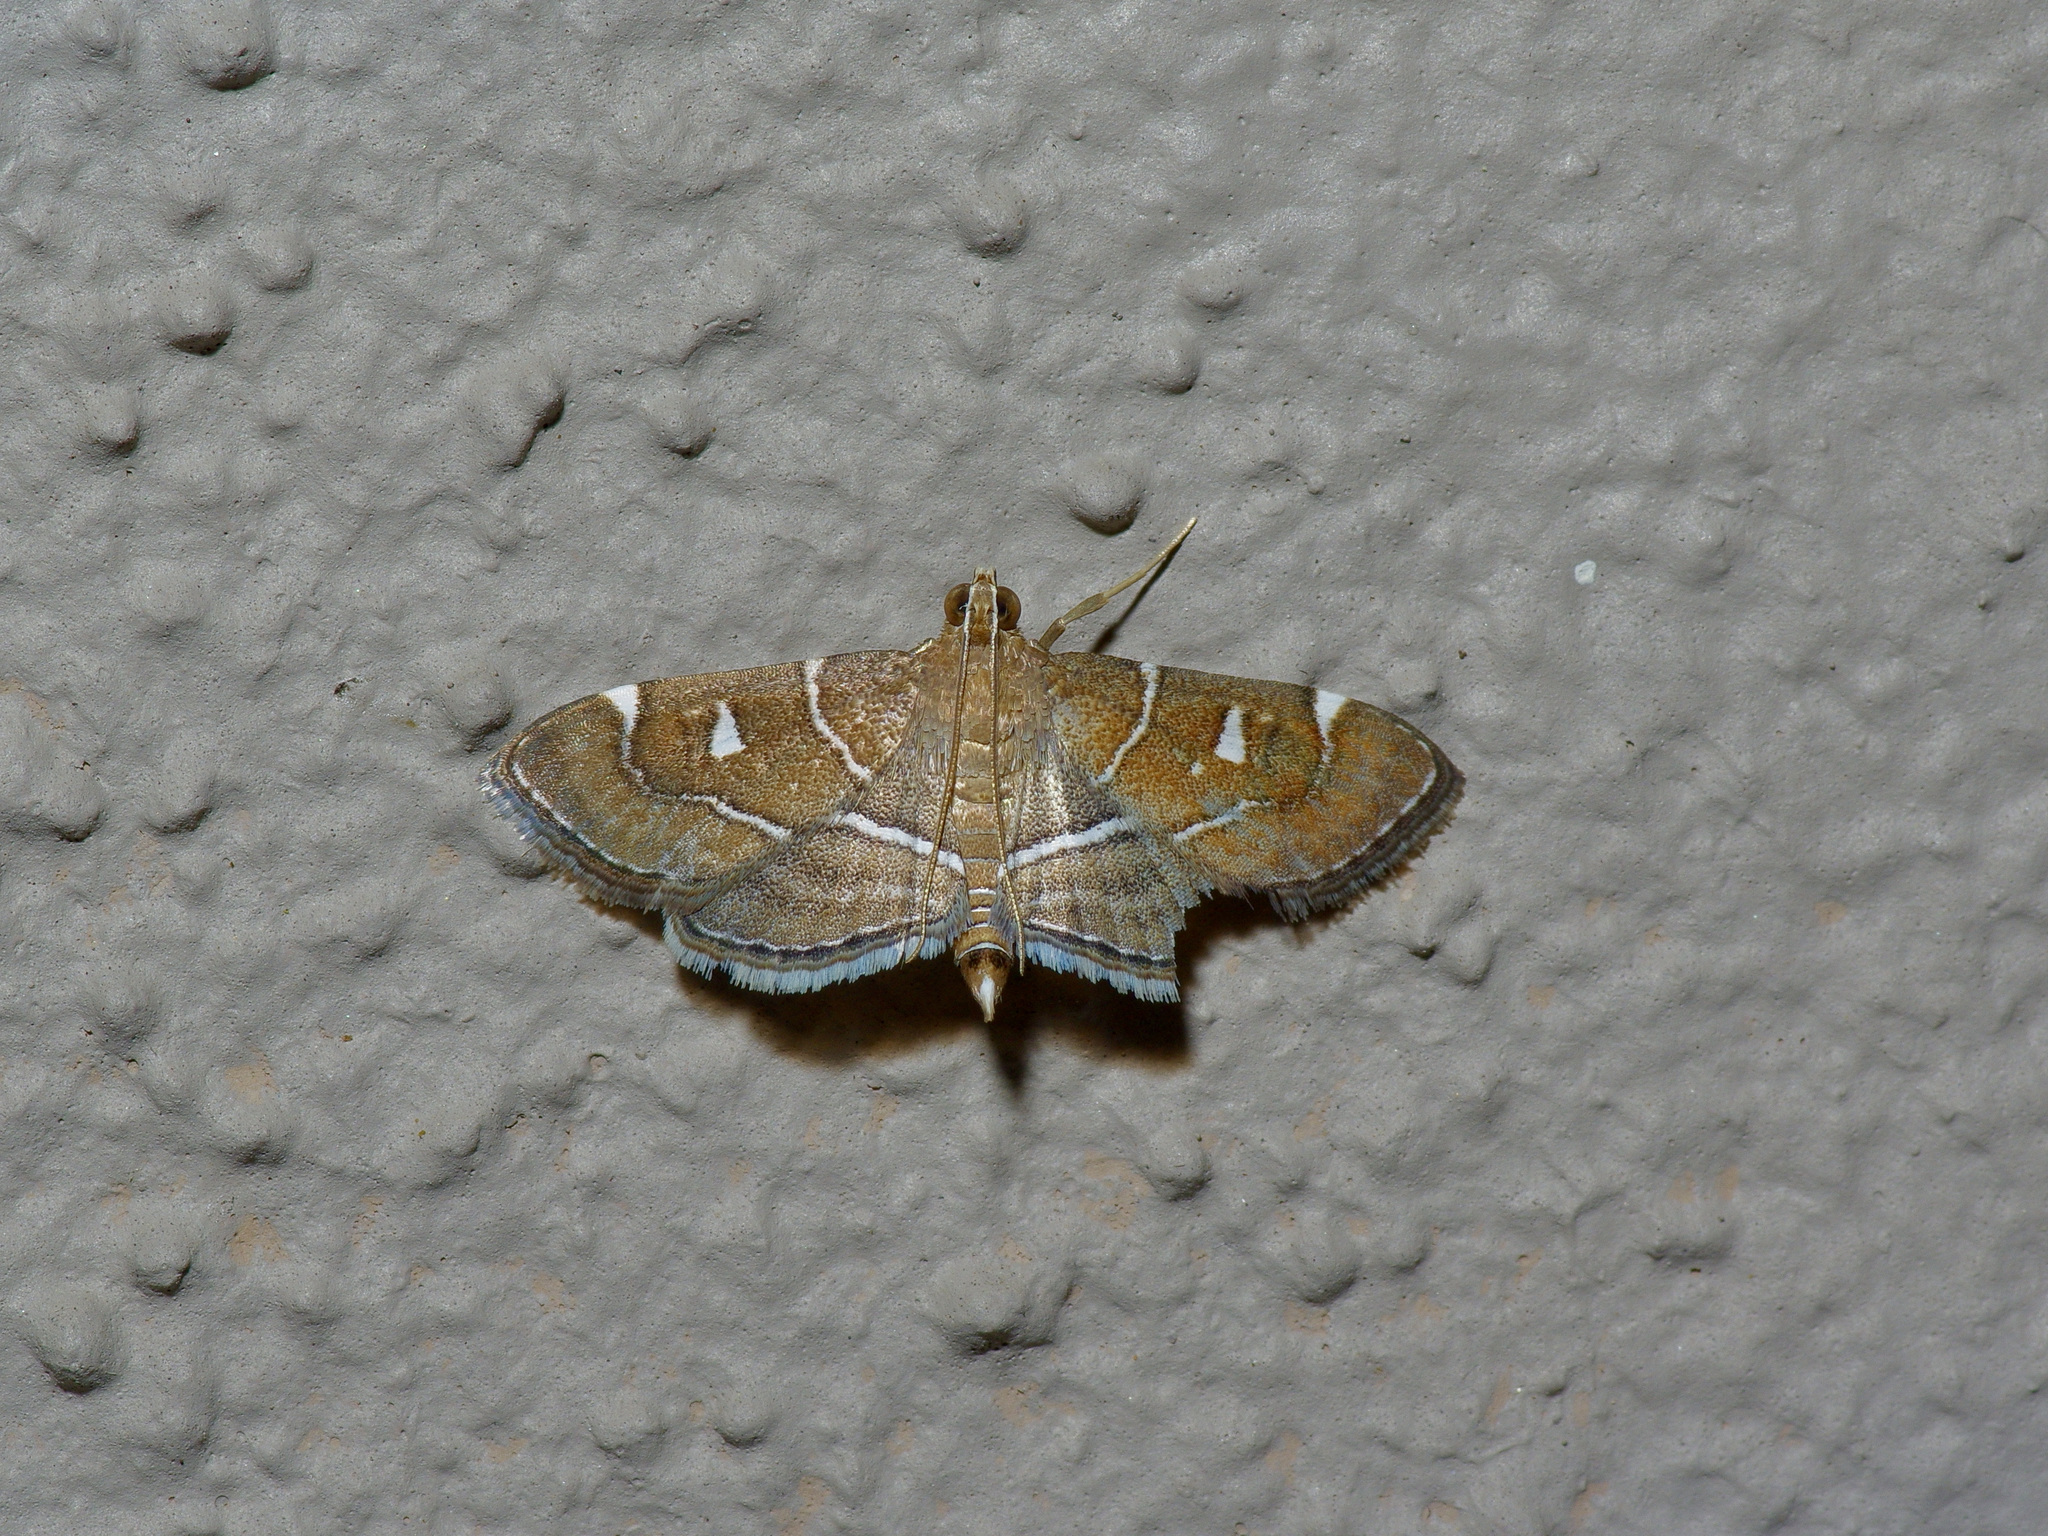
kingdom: Animalia
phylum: Arthropoda
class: Insecta
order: Lepidoptera
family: Crambidae
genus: Lamprosema
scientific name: Lamprosema victoriae
